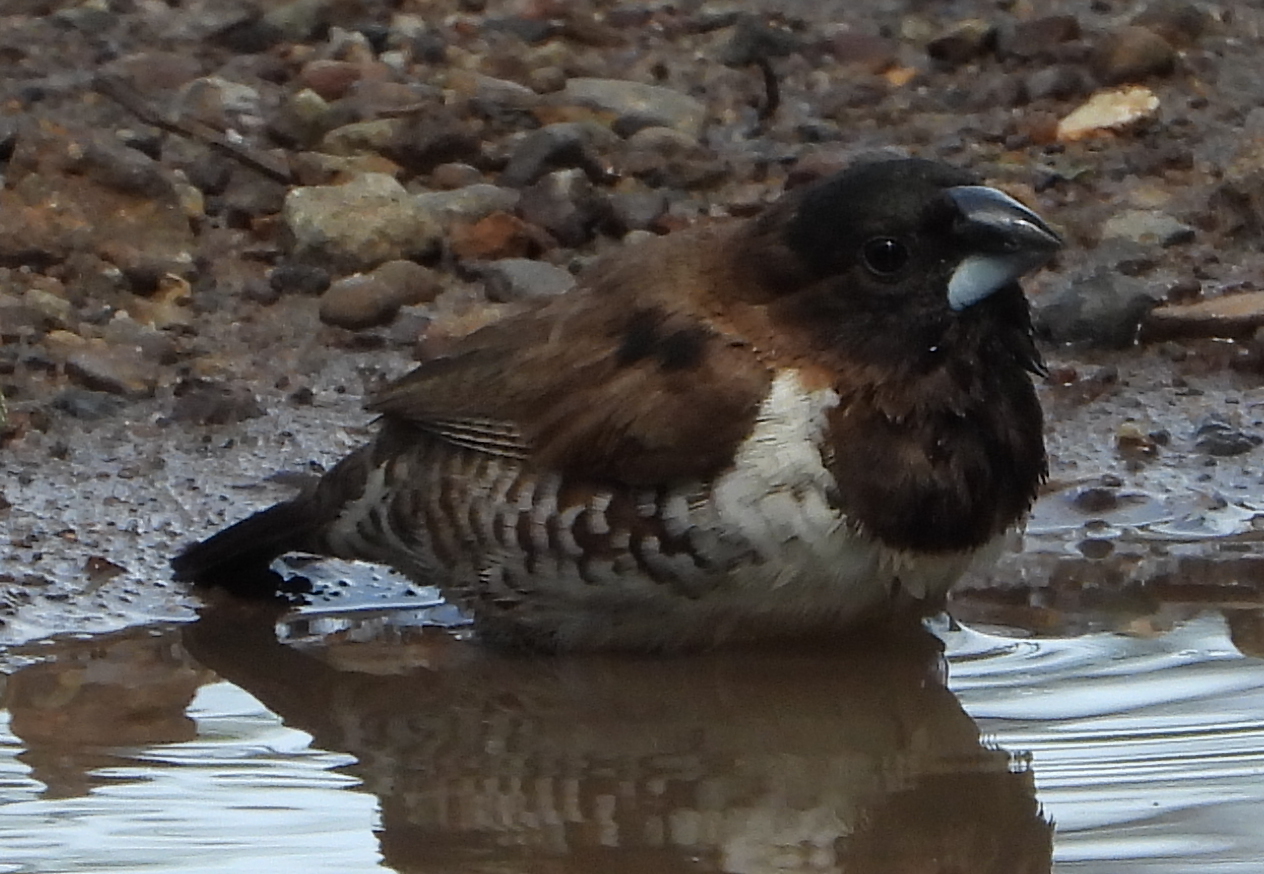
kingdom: Animalia
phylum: Chordata
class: Aves
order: Passeriformes
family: Estrildidae
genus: Lonchura
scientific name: Lonchura cucullata
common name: Bronze mannikin
